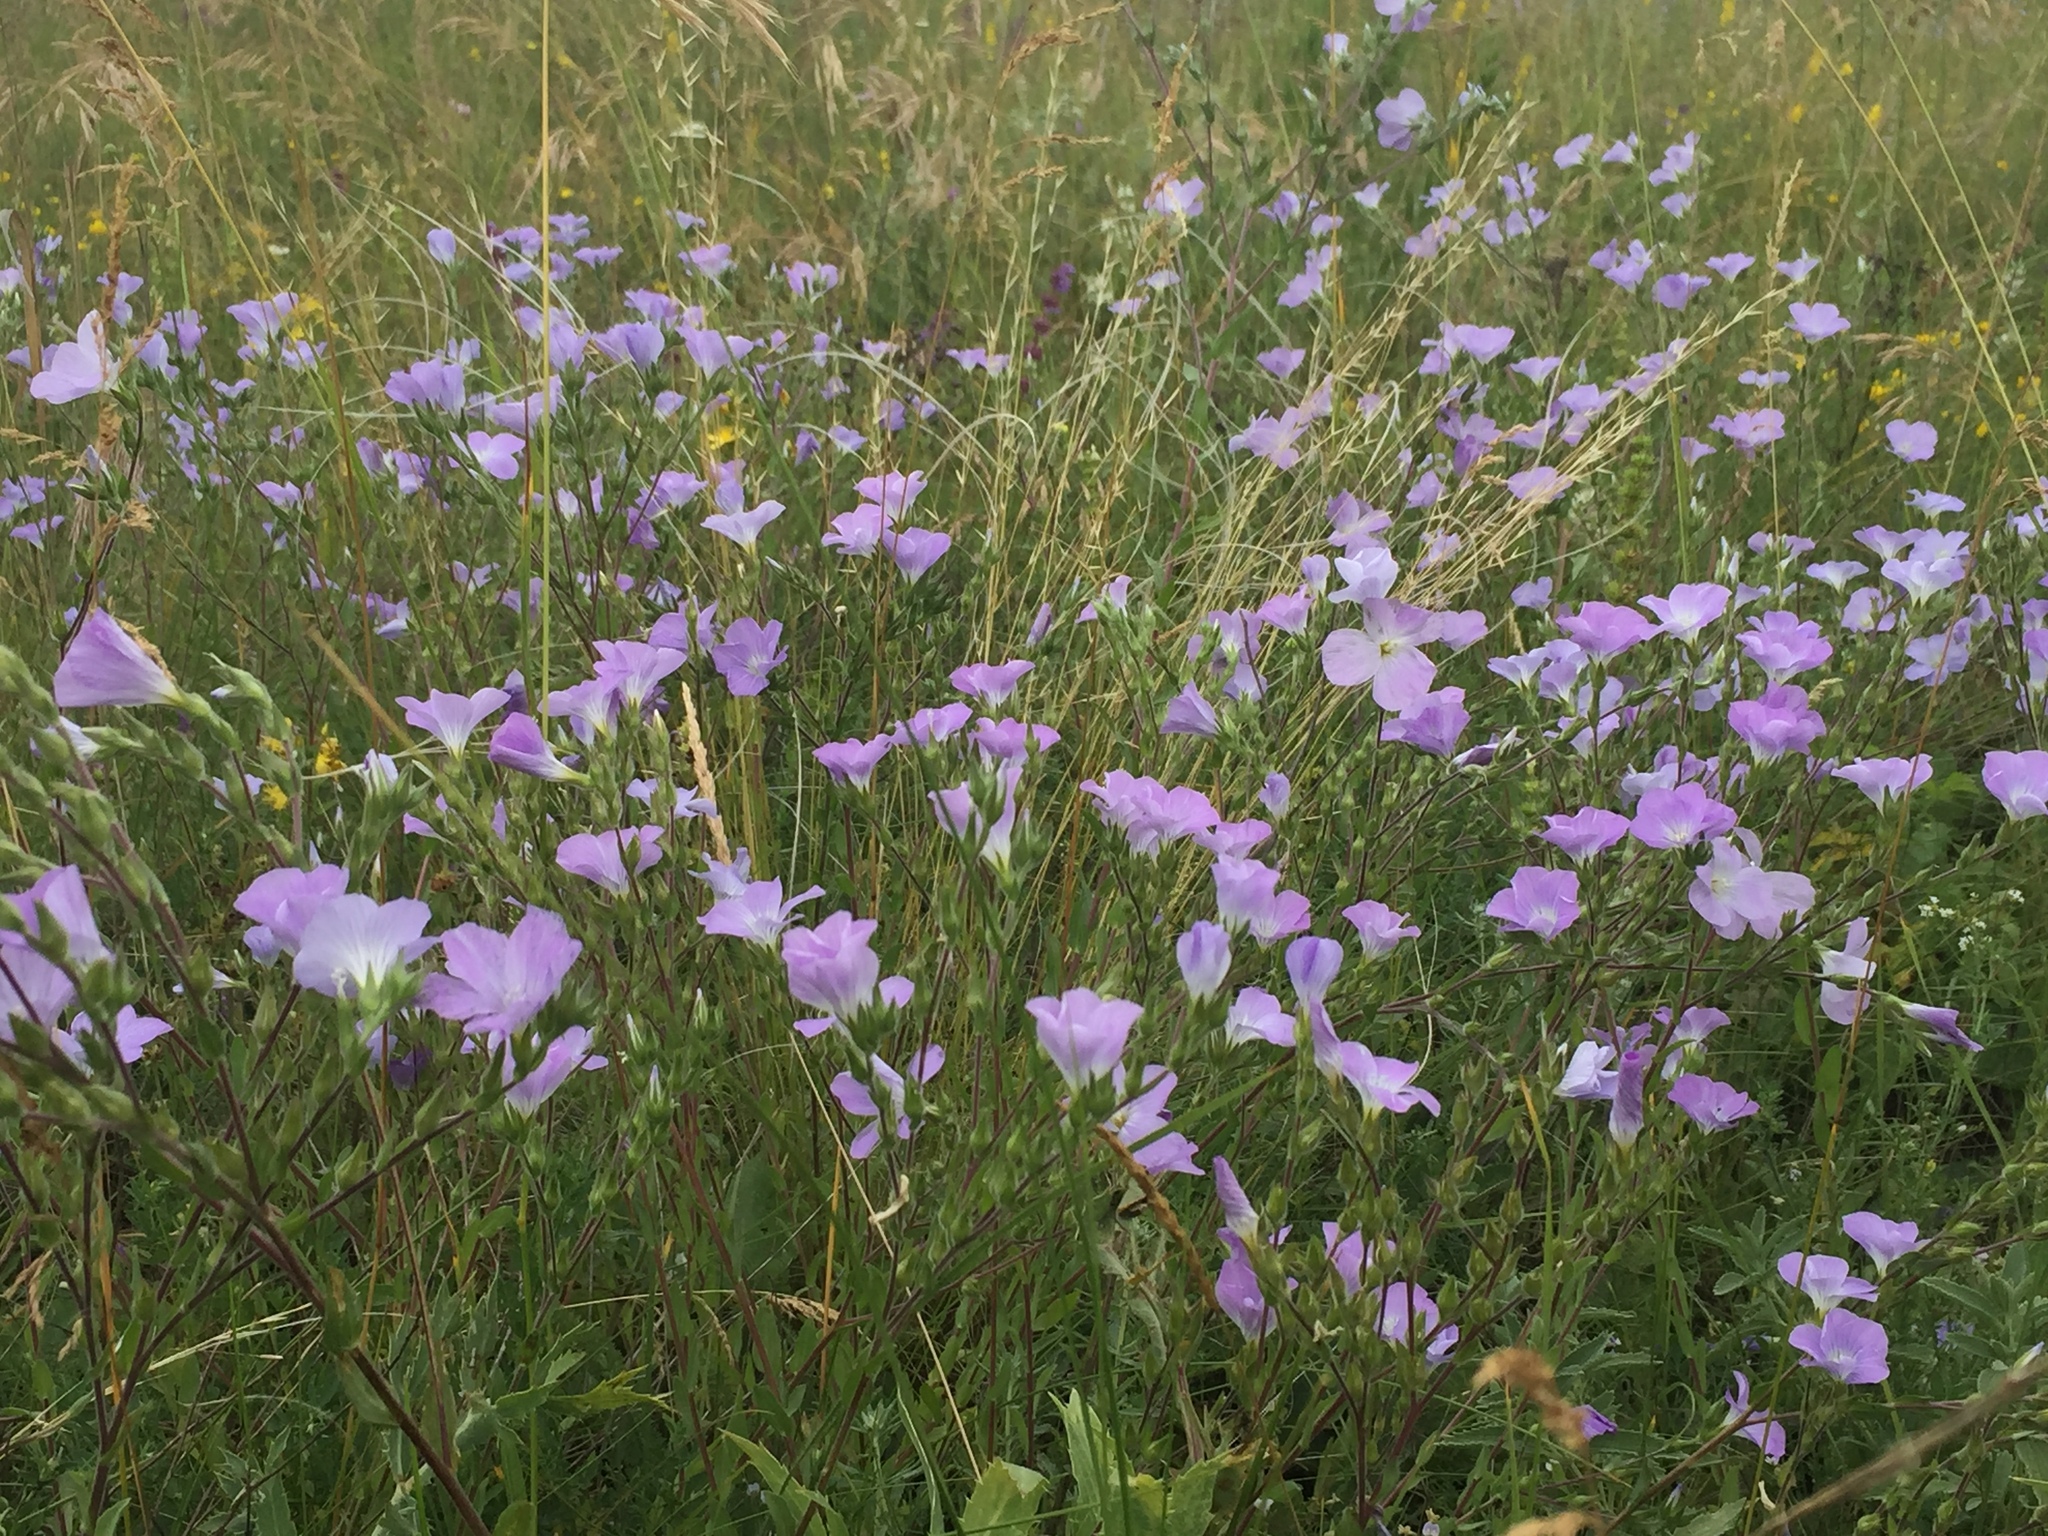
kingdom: Plantae
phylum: Tracheophyta
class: Magnoliopsida
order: Malpighiales
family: Linaceae
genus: Linum
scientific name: Linum hirsutum
